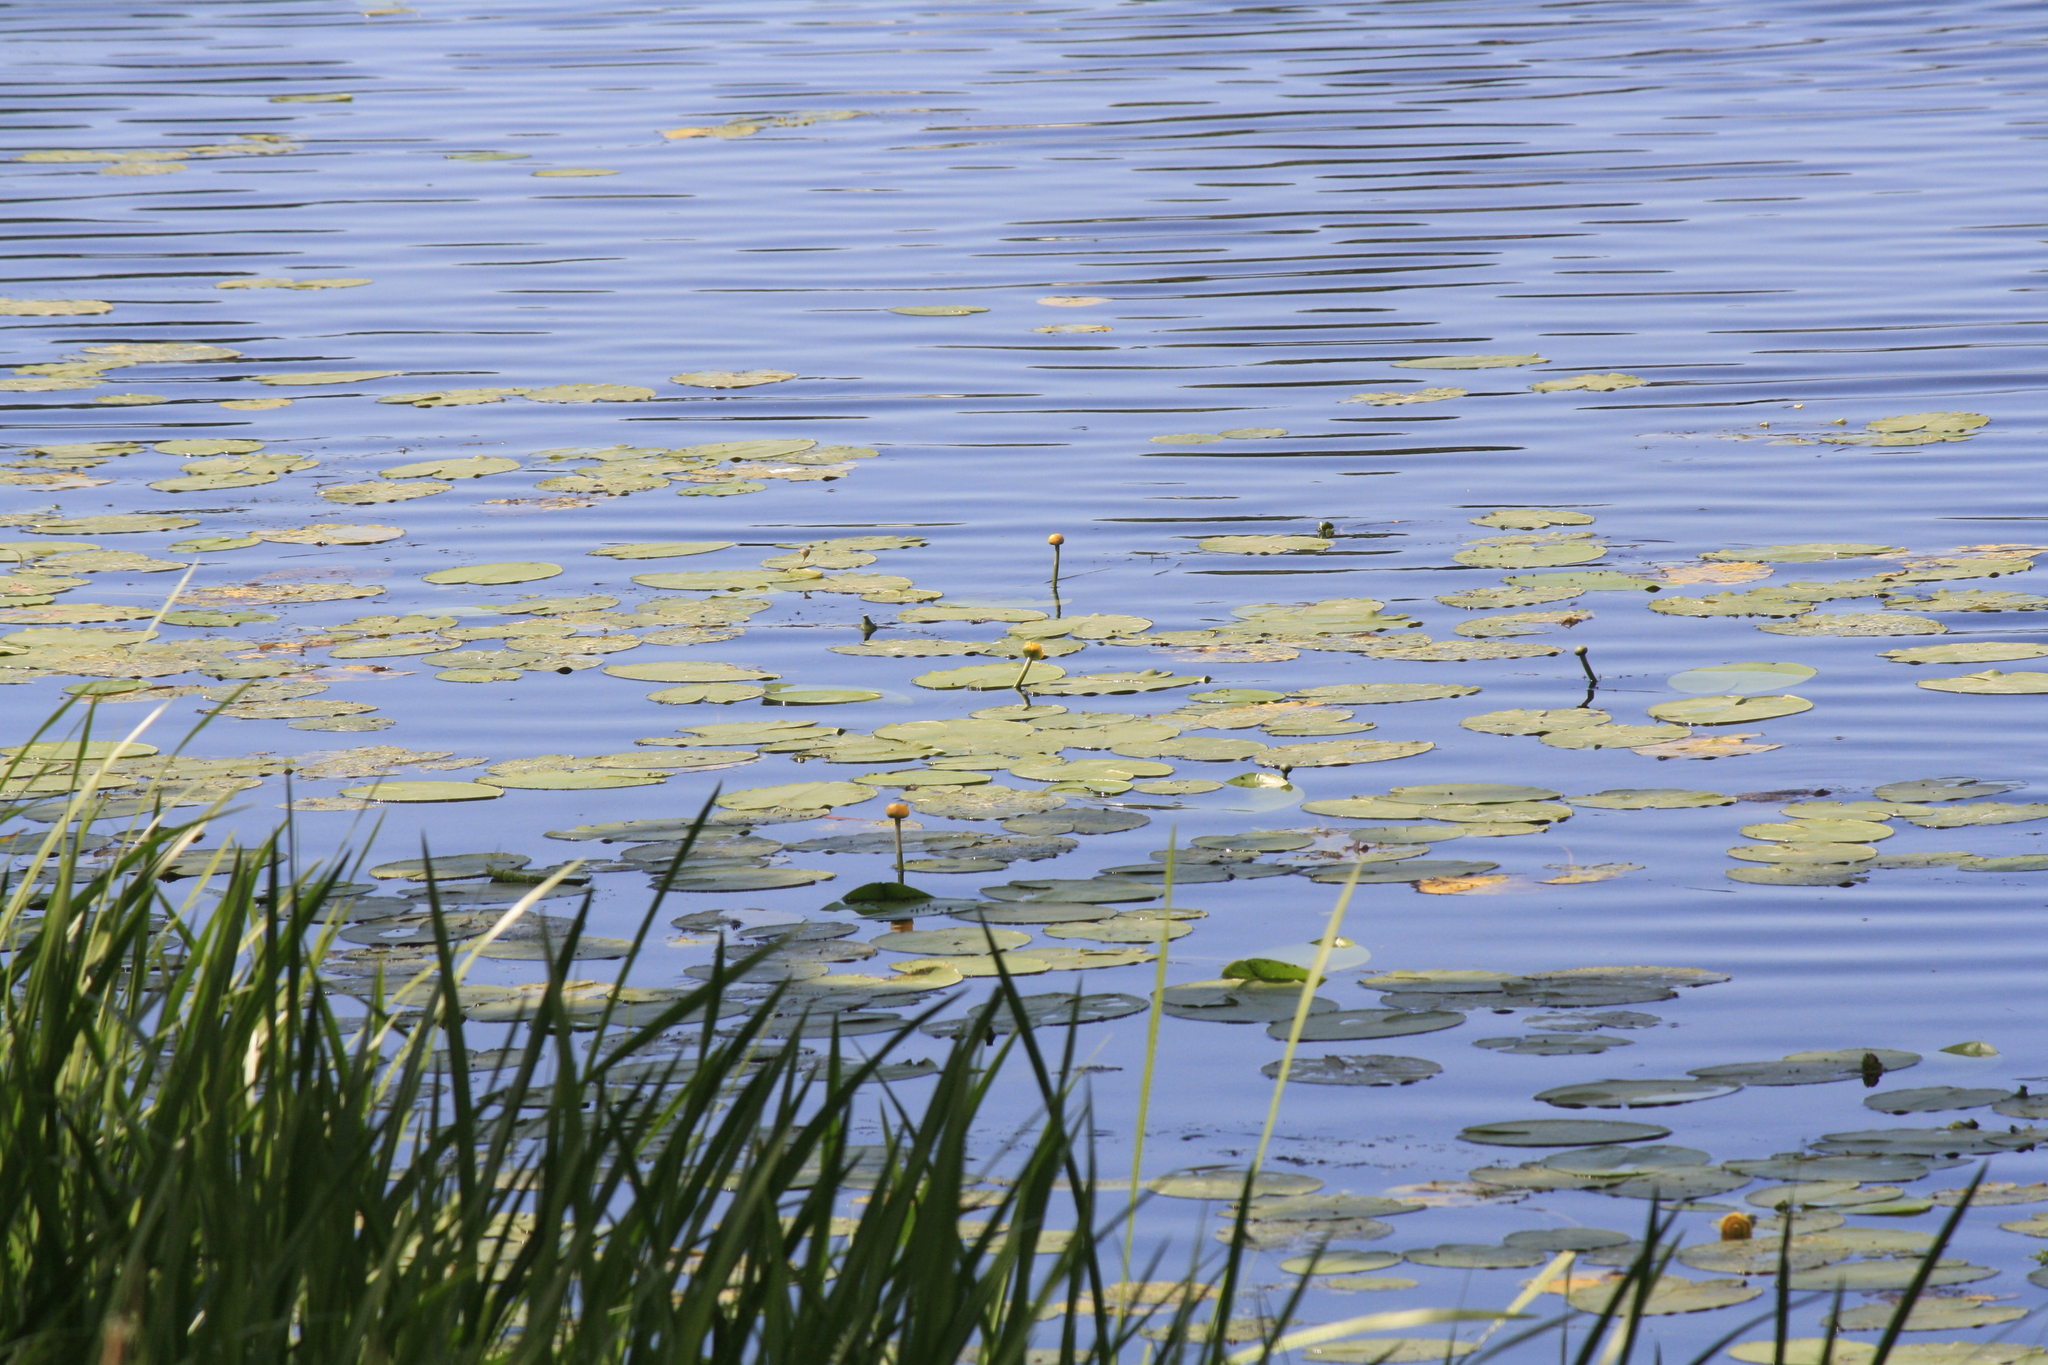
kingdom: Plantae
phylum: Tracheophyta
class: Magnoliopsida
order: Nymphaeales
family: Nymphaeaceae
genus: Nuphar
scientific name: Nuphar lutea
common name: Yellow water-lily
